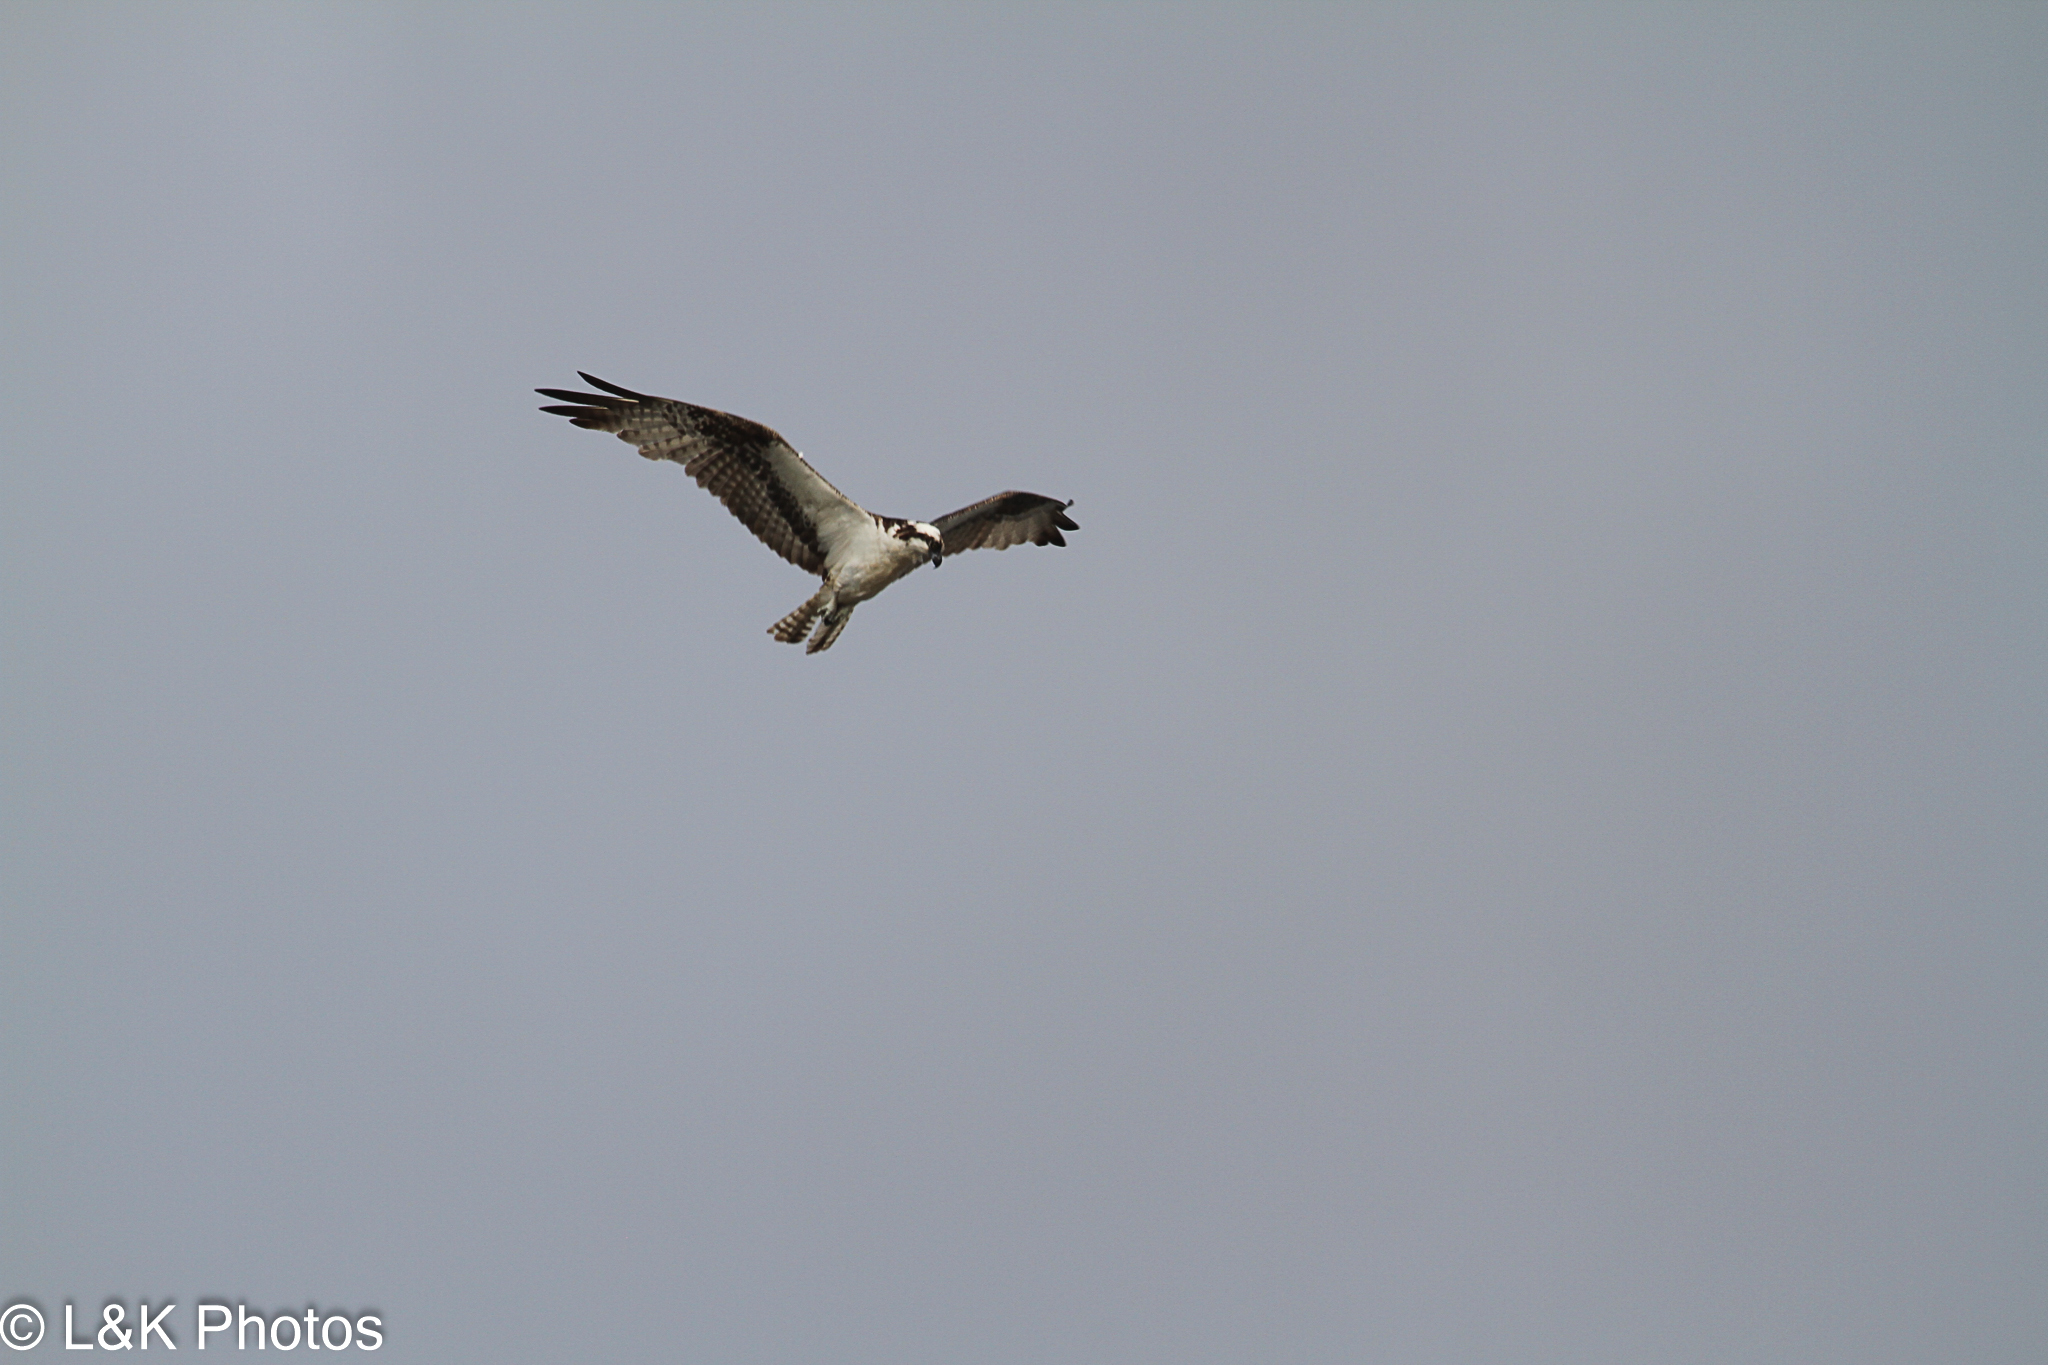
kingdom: Animalia
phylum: Chordata
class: Aves
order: Accipitriformes
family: Pandionidae
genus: Pandion
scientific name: Pandion haliaetus
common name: Osprey
